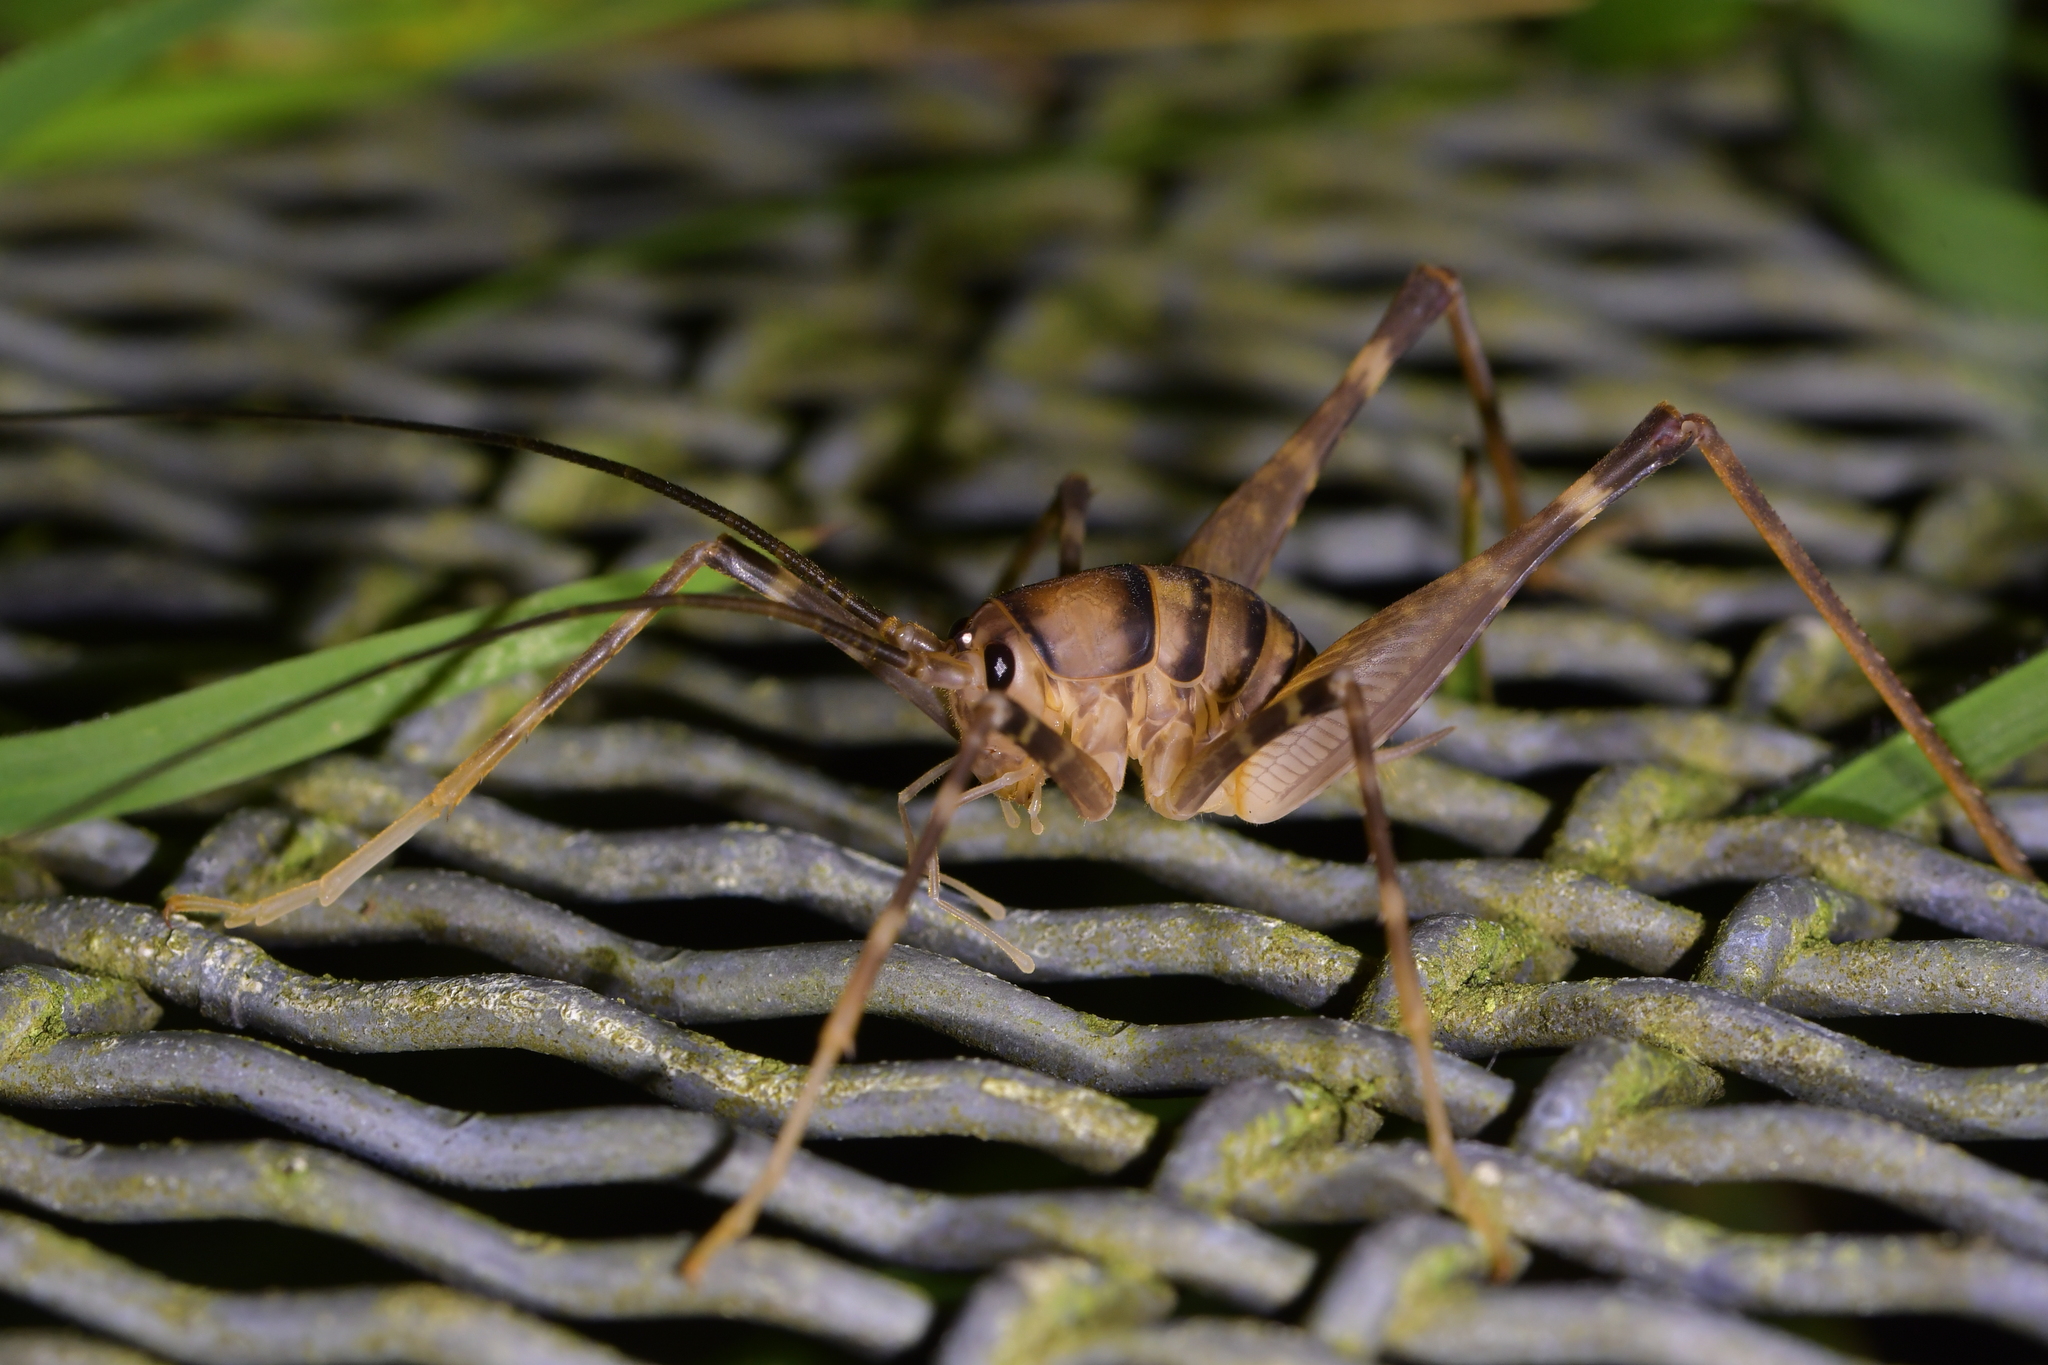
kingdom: Animalia
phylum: Arthropoda
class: Insecta
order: Orthoptera
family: Rhaphidophoridae
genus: Pachyrhamma
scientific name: Pachyrhamma edwardsii
